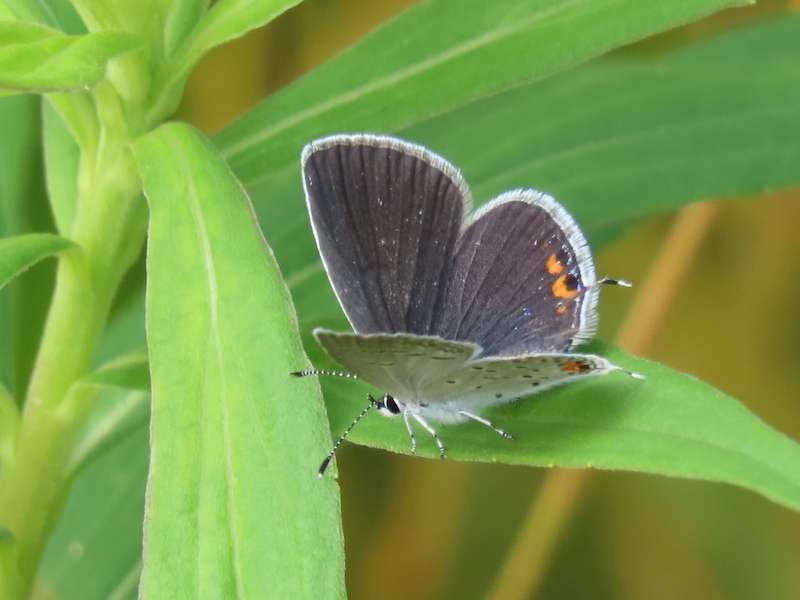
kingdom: Animalia
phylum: Arthropoda
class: Insecta
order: Lepidoptera
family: Lycaenidae
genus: Elkalyce
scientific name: Elkalyce comyntas
